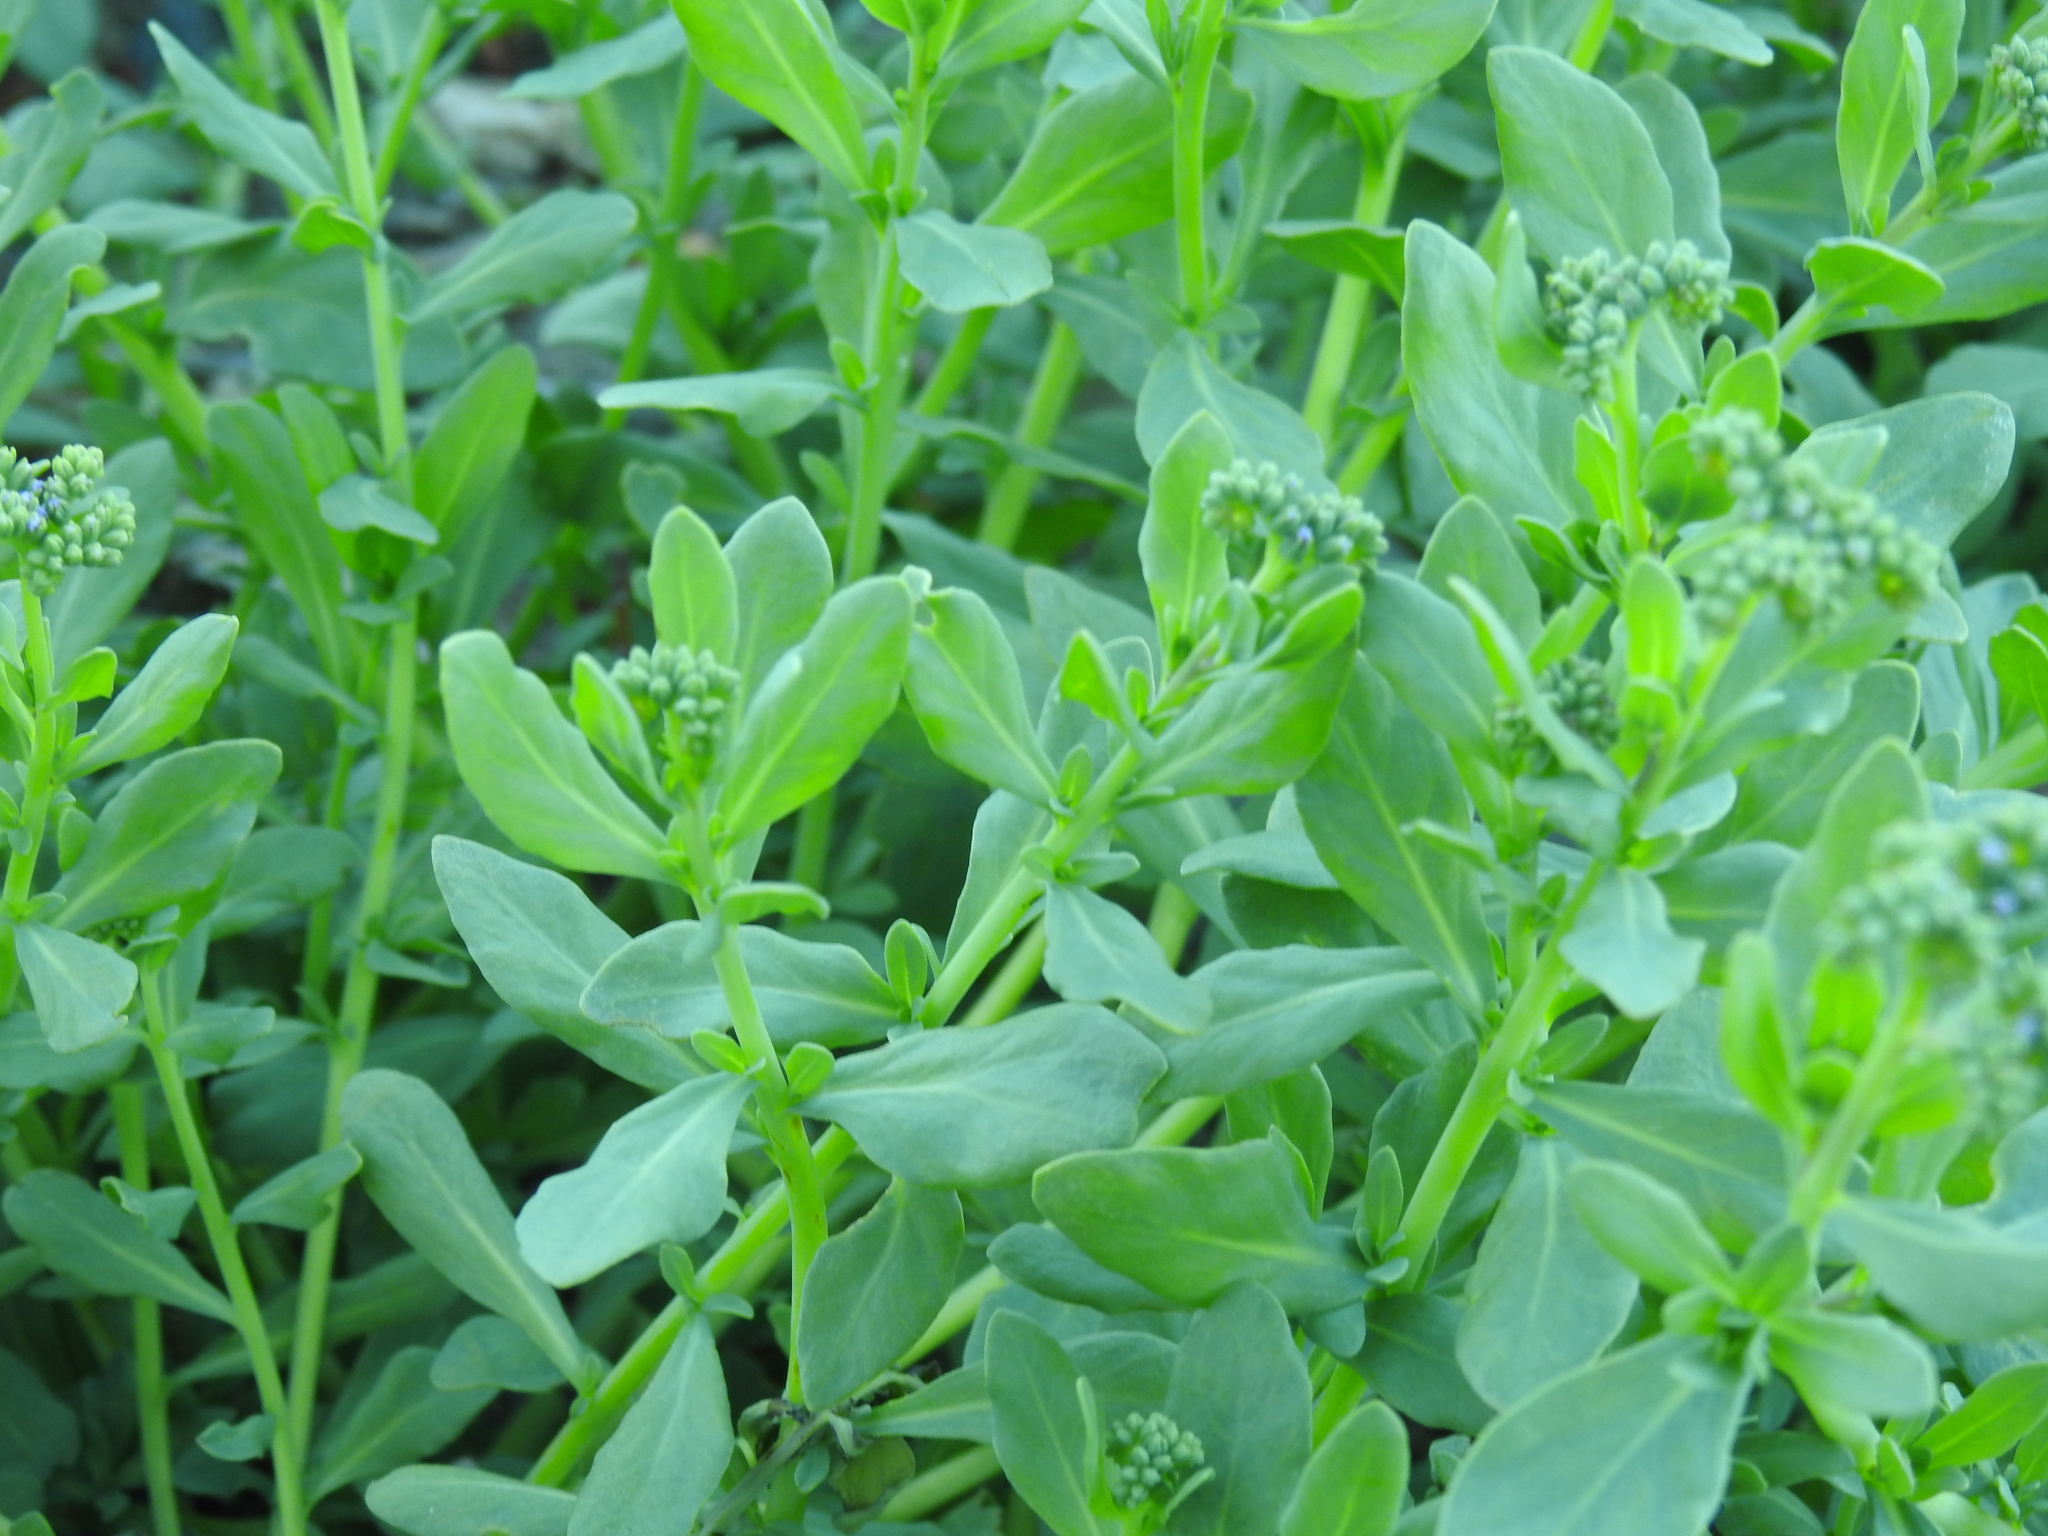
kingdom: Plantae
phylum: Tracheophyta
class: Magnoliopsida
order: Boraginales
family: Heliotropiaceae
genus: Heliotropium
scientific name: Heliotropium curassavicum
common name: Seaside heliotrope
